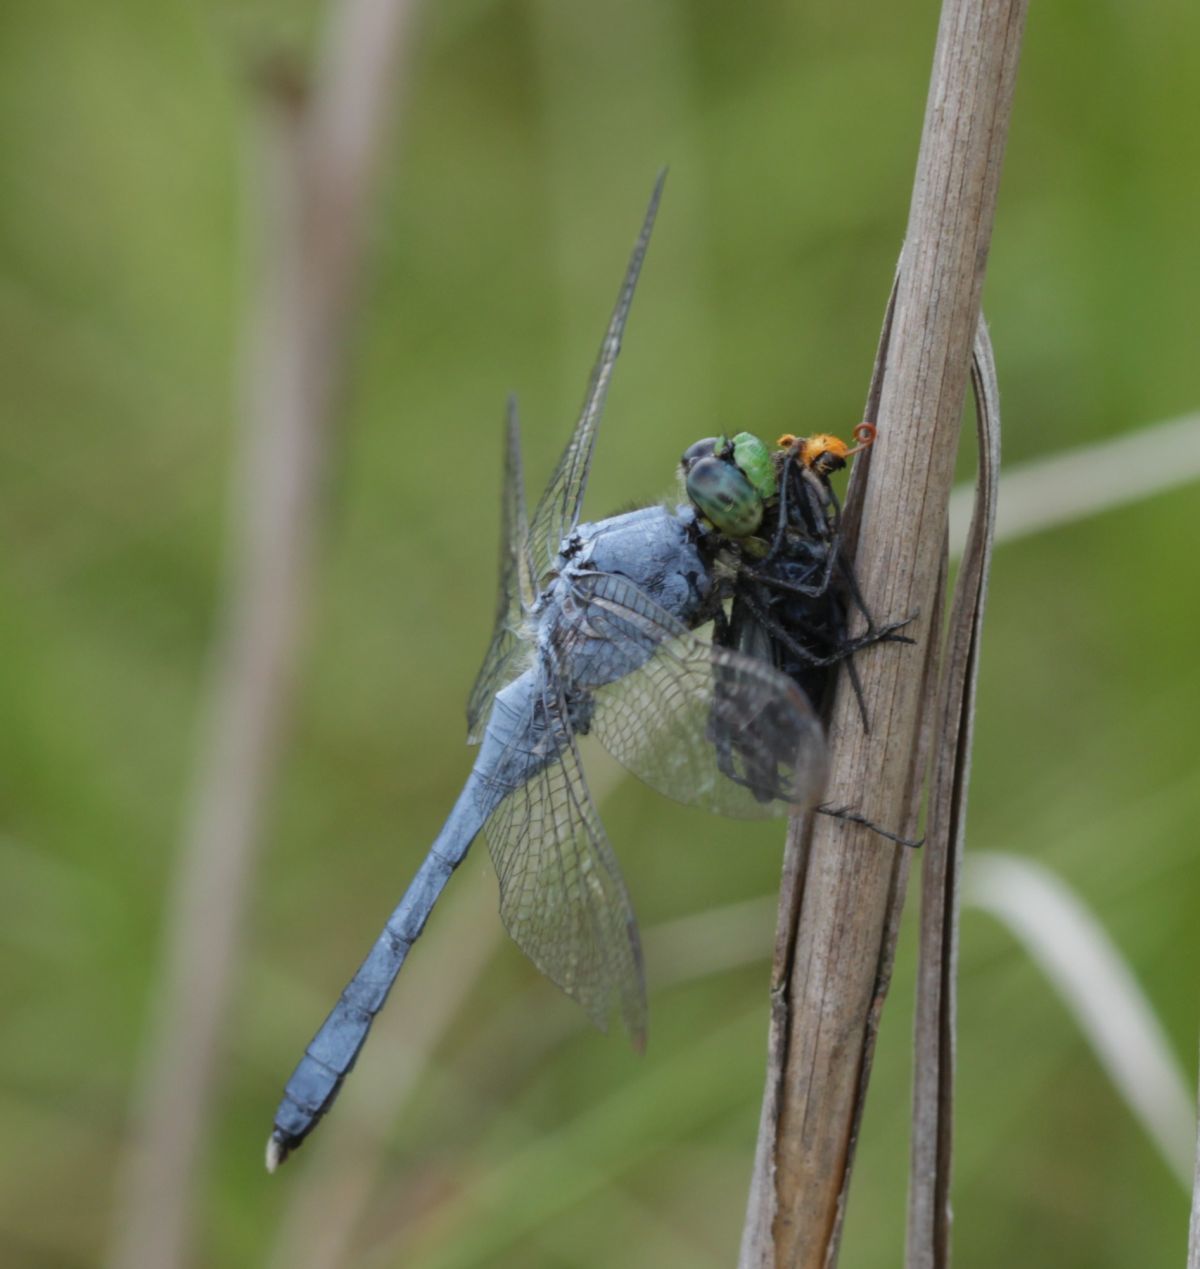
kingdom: Animalia
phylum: Arthropoda
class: Insecta
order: Odonata
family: Libellulidae
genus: Erythemis
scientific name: Erythemis simplicicollis
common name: Eastern pondhawk
